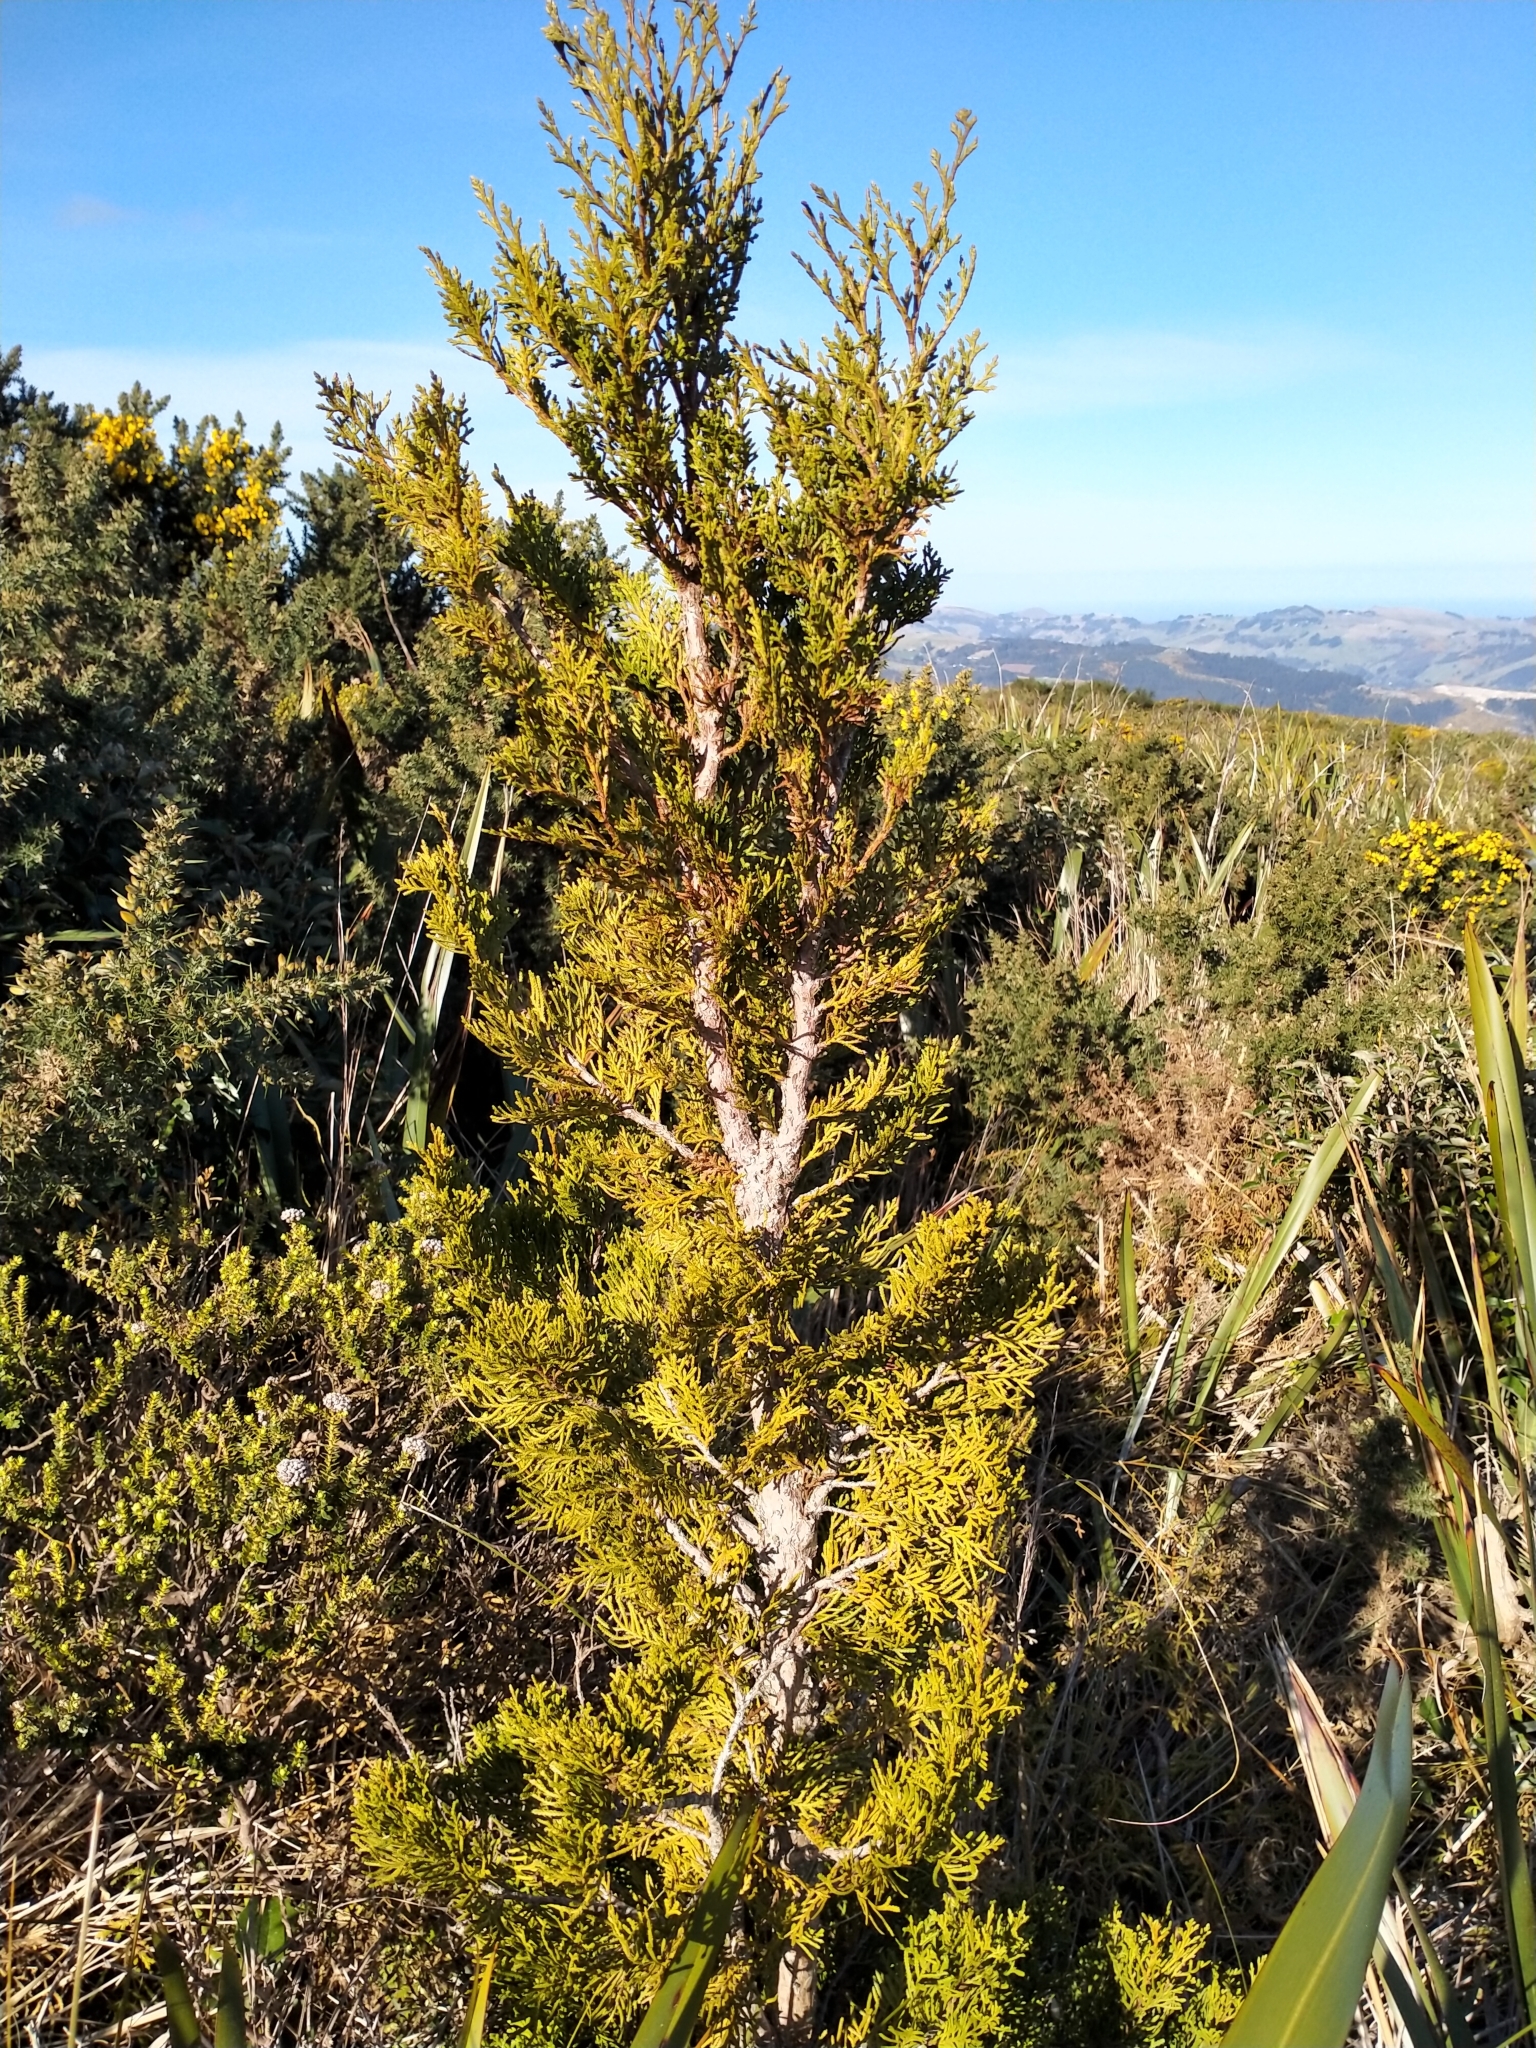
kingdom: Plantae
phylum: Tracheophyta
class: Pinopsida
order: Pinales
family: Cupressaceae
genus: Libocedrus
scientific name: Libocedrus bidwillii
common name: Cedar
